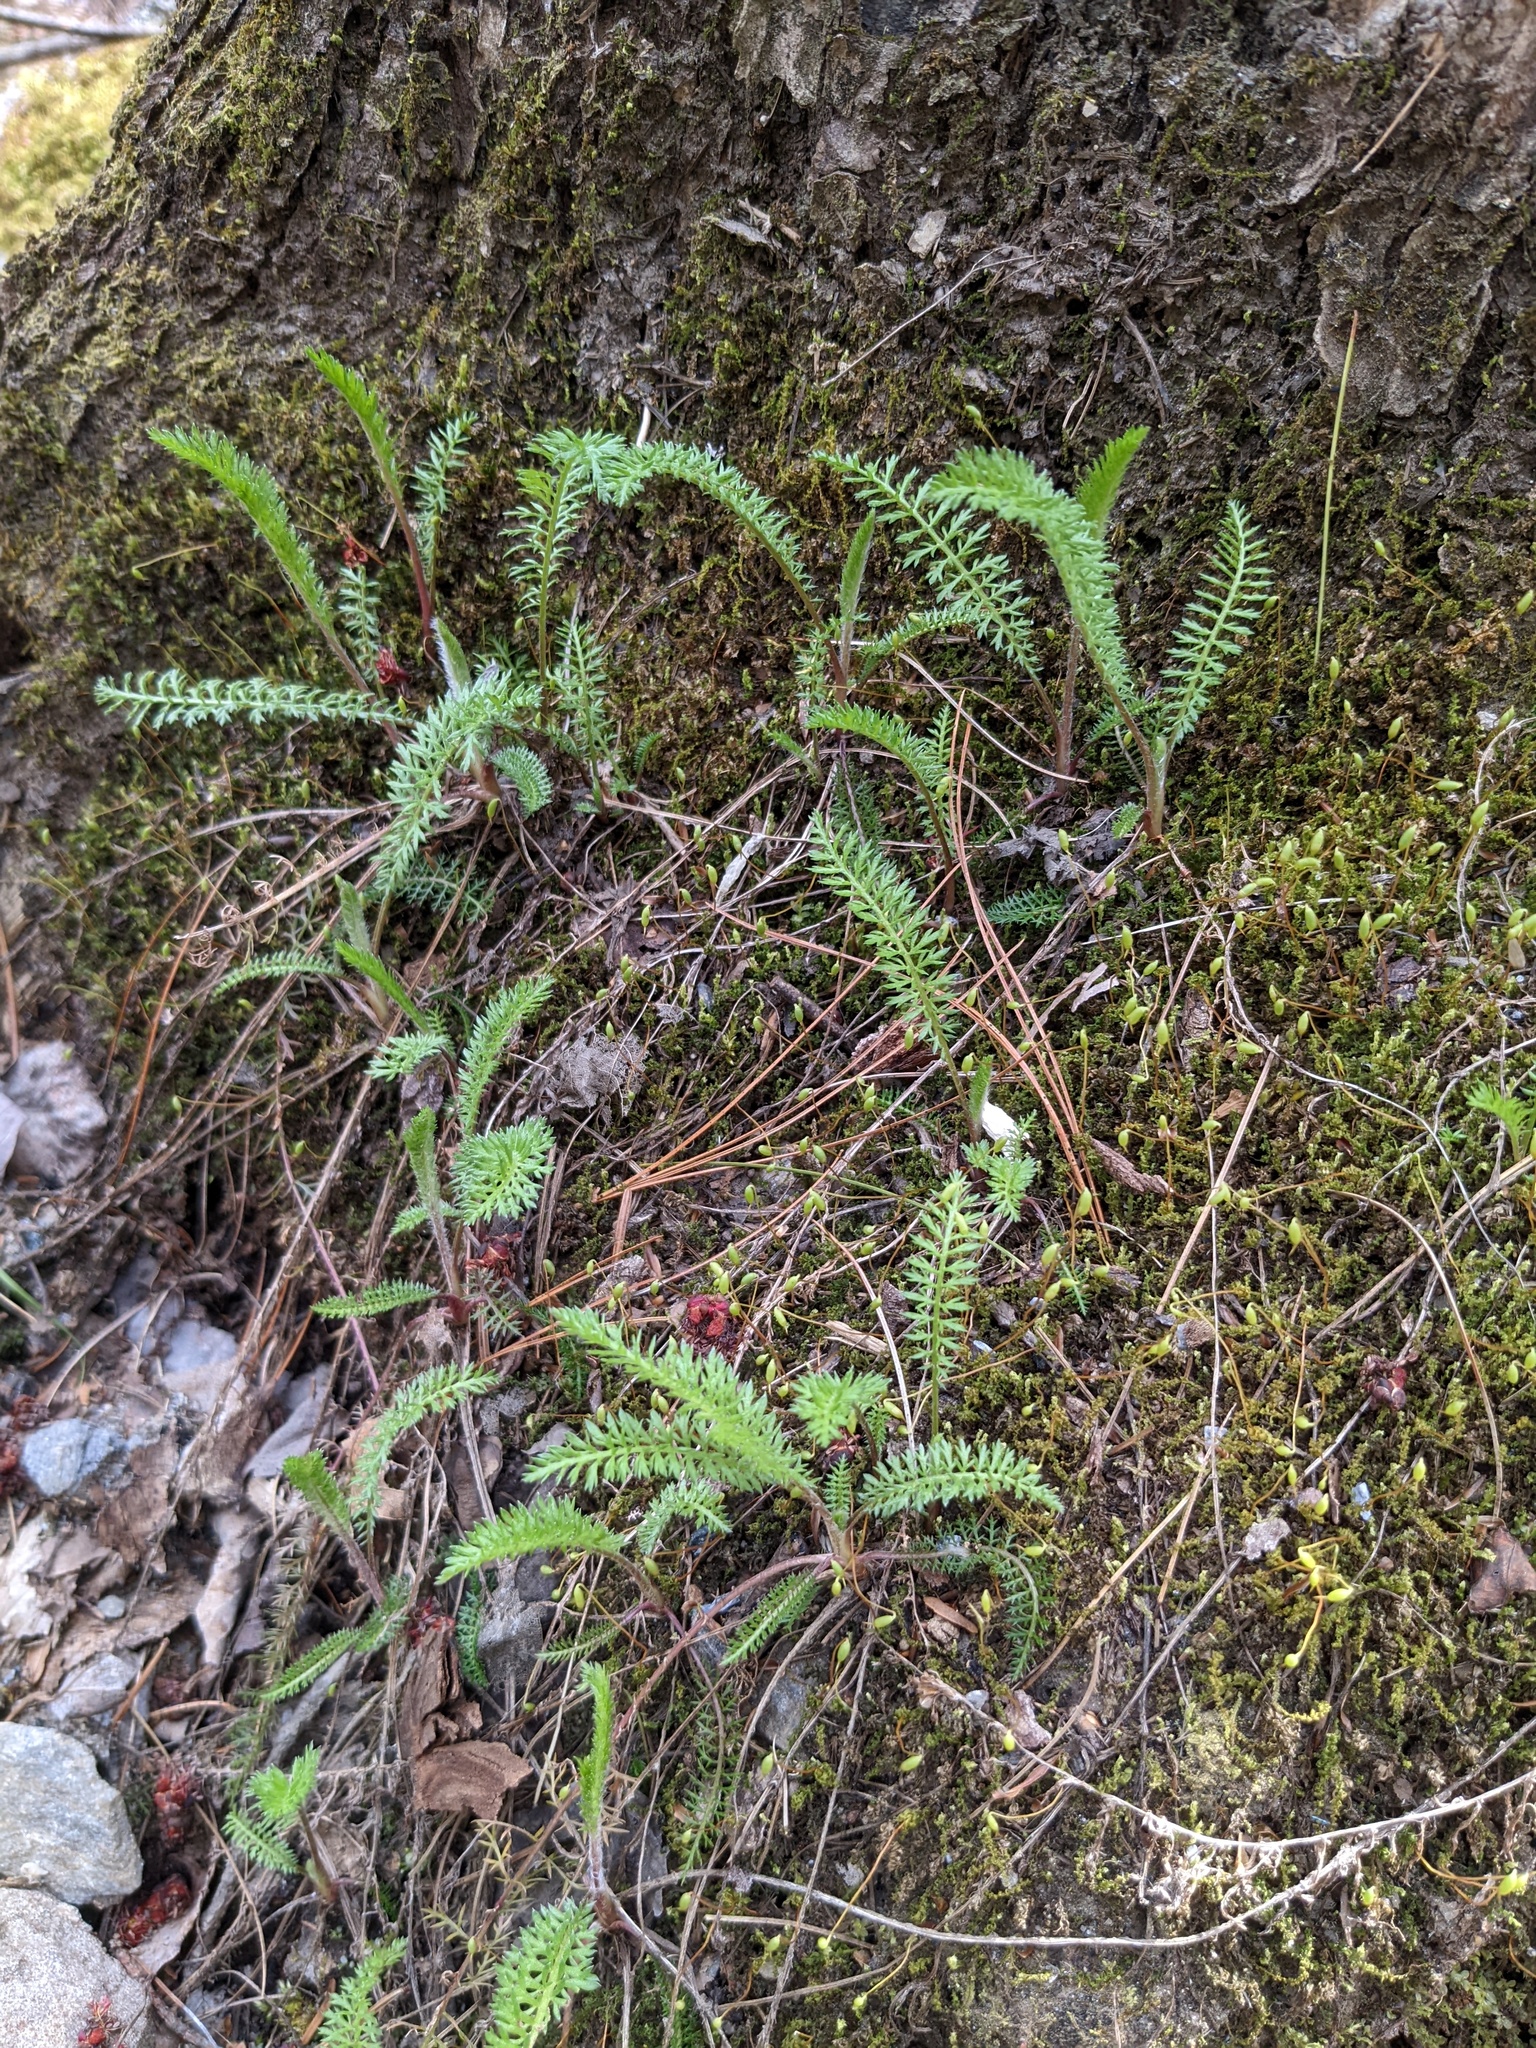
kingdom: Plantae
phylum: Tracheophyta
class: Magnoliopsida
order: Asterales
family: Asteraceae
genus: Achillea
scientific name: Achillea millefolium
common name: Yarrow
